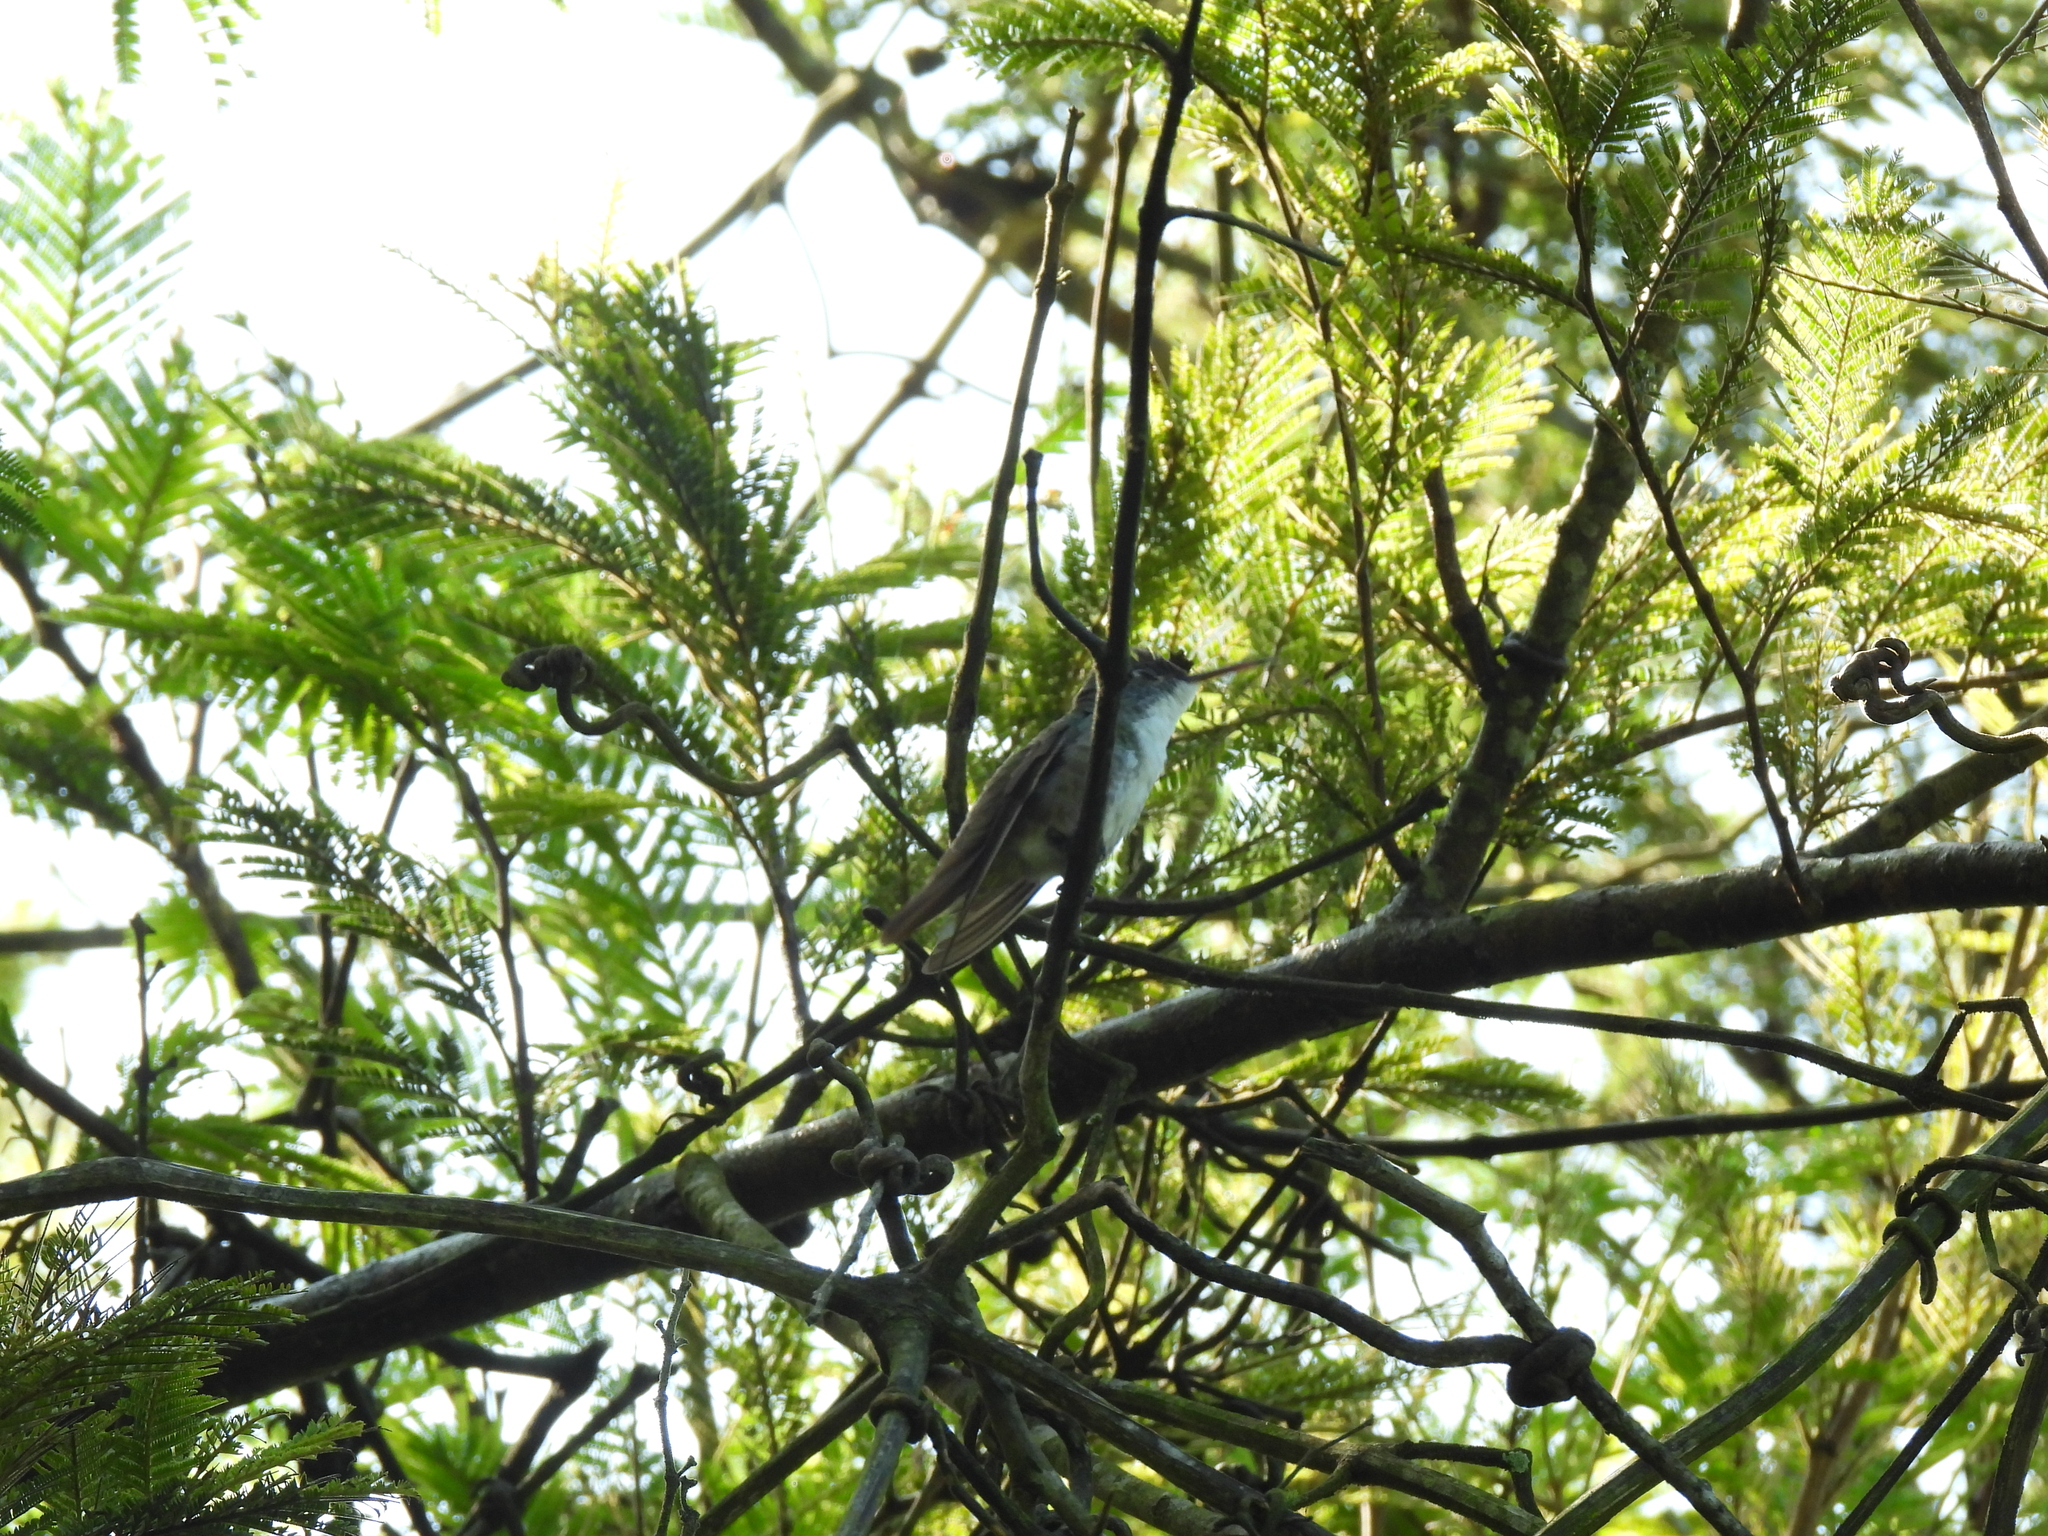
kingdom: Animalia
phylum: Chordata
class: Aves
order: Apodiformes
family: Trochilidae
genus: Saucerottia
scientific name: Saucerottia cyanocephala
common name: Azure-crowned hummingbird
